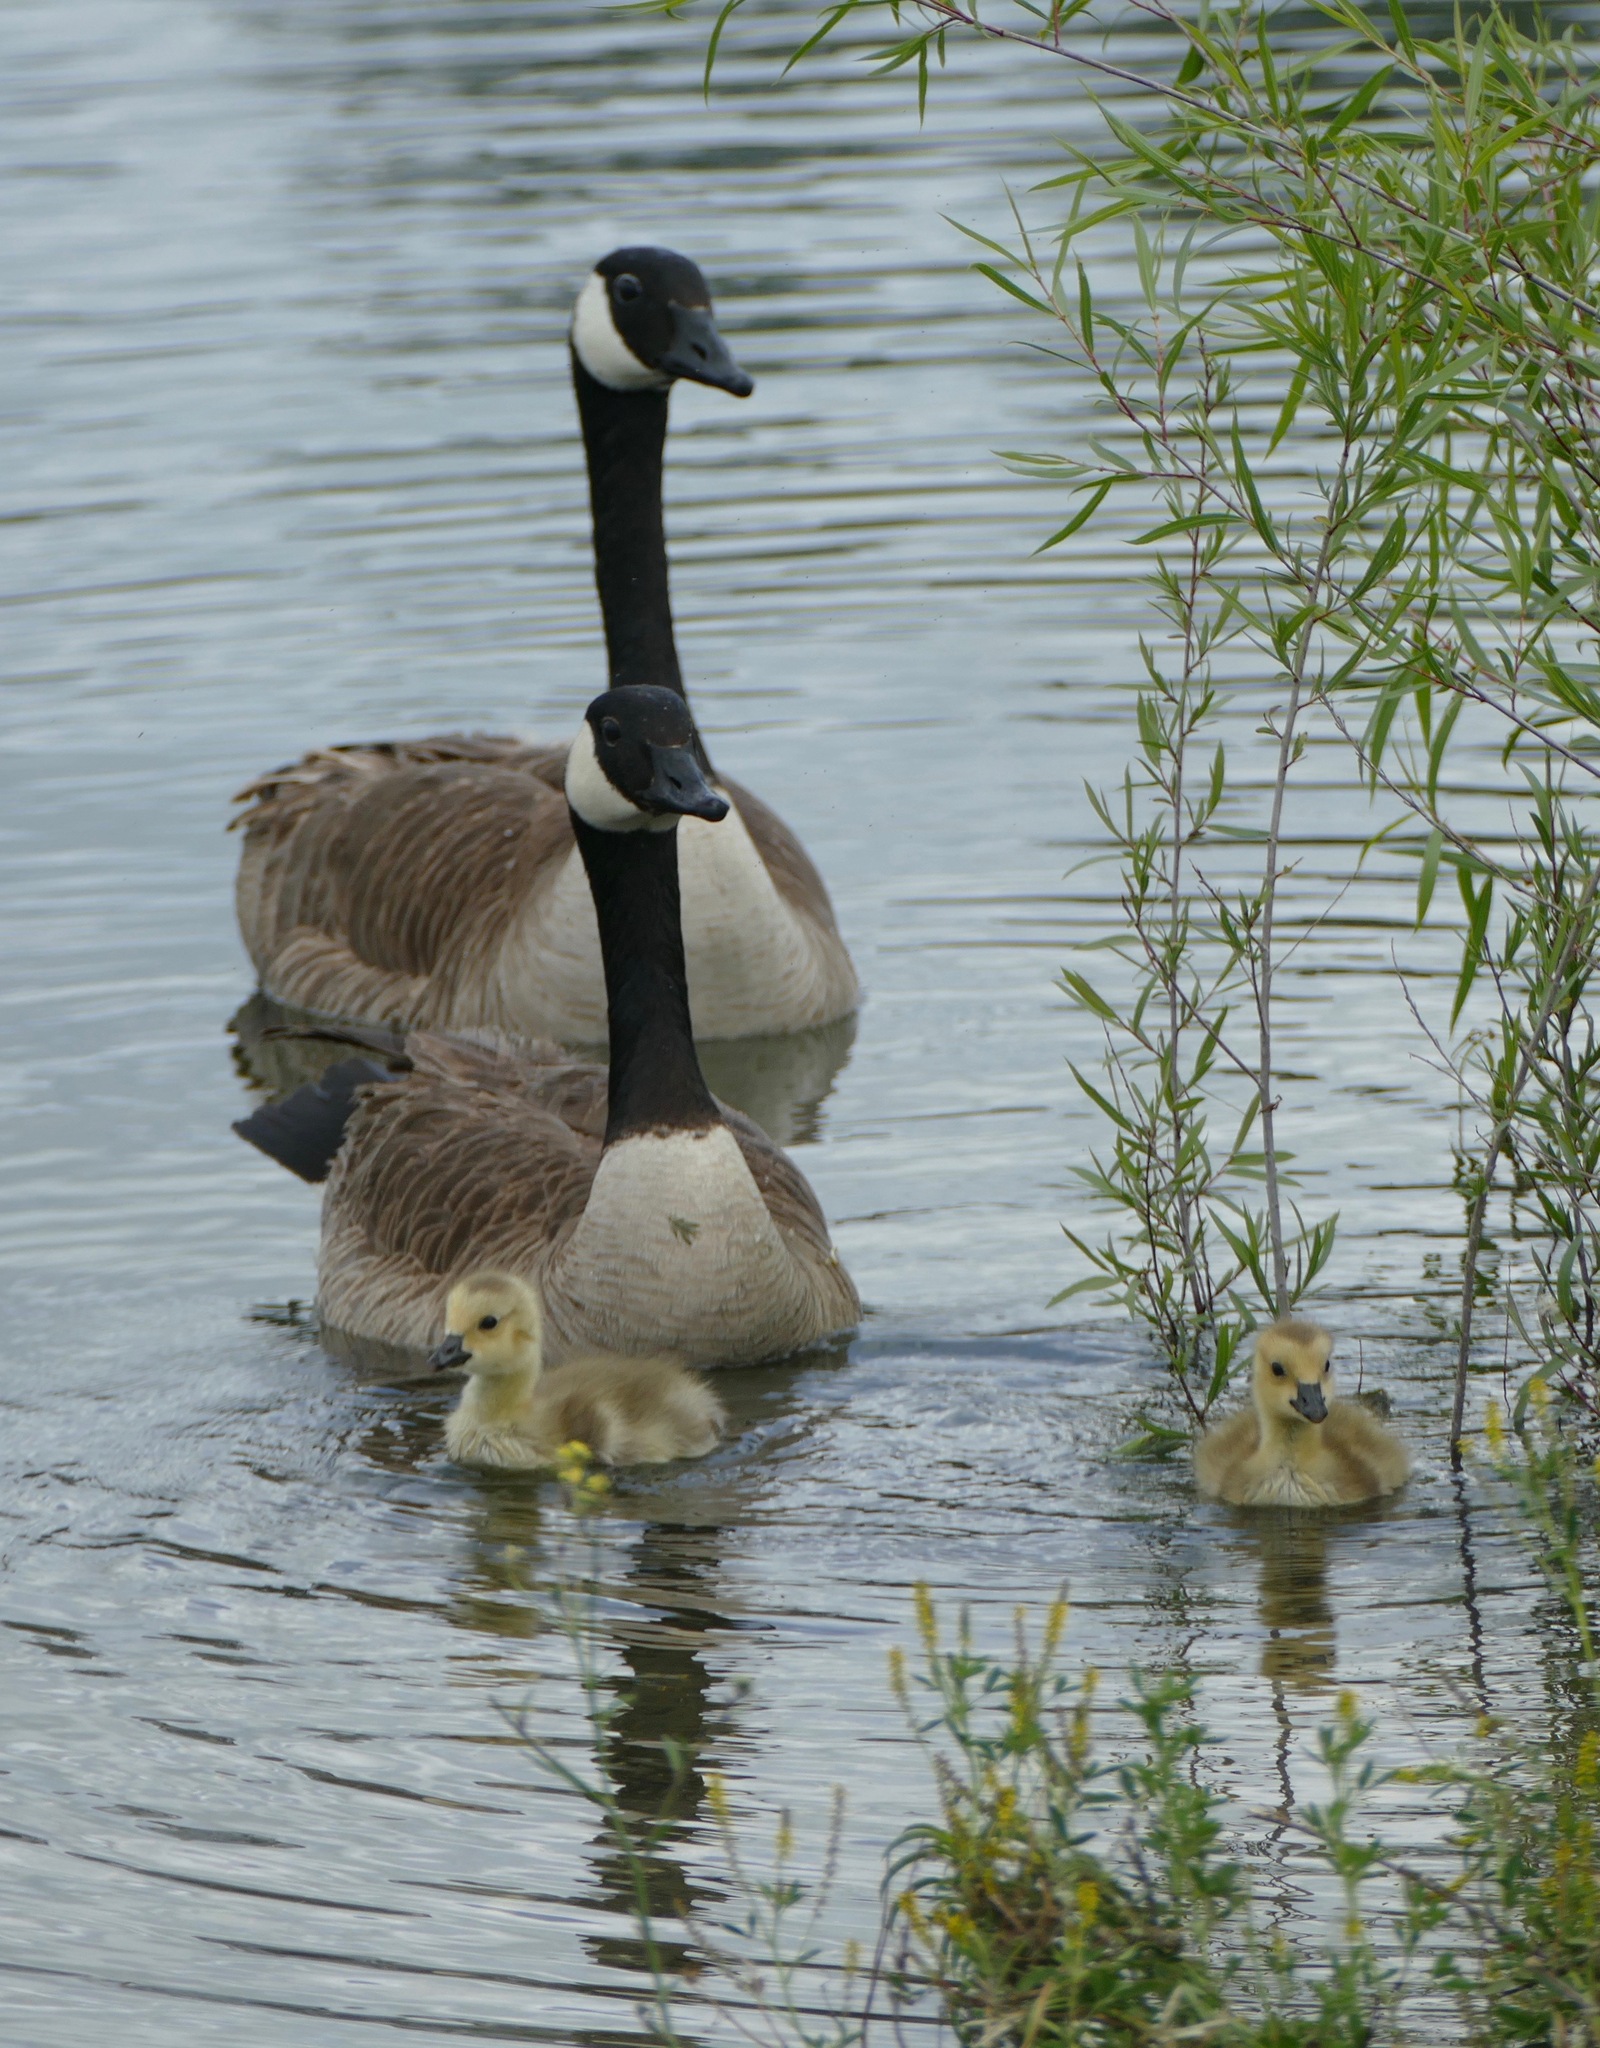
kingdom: Animalia
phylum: Chordata
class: Aves
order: Anseriformes
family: Anatidae
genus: Branta
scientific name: Branta canadensis
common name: Canada goose
